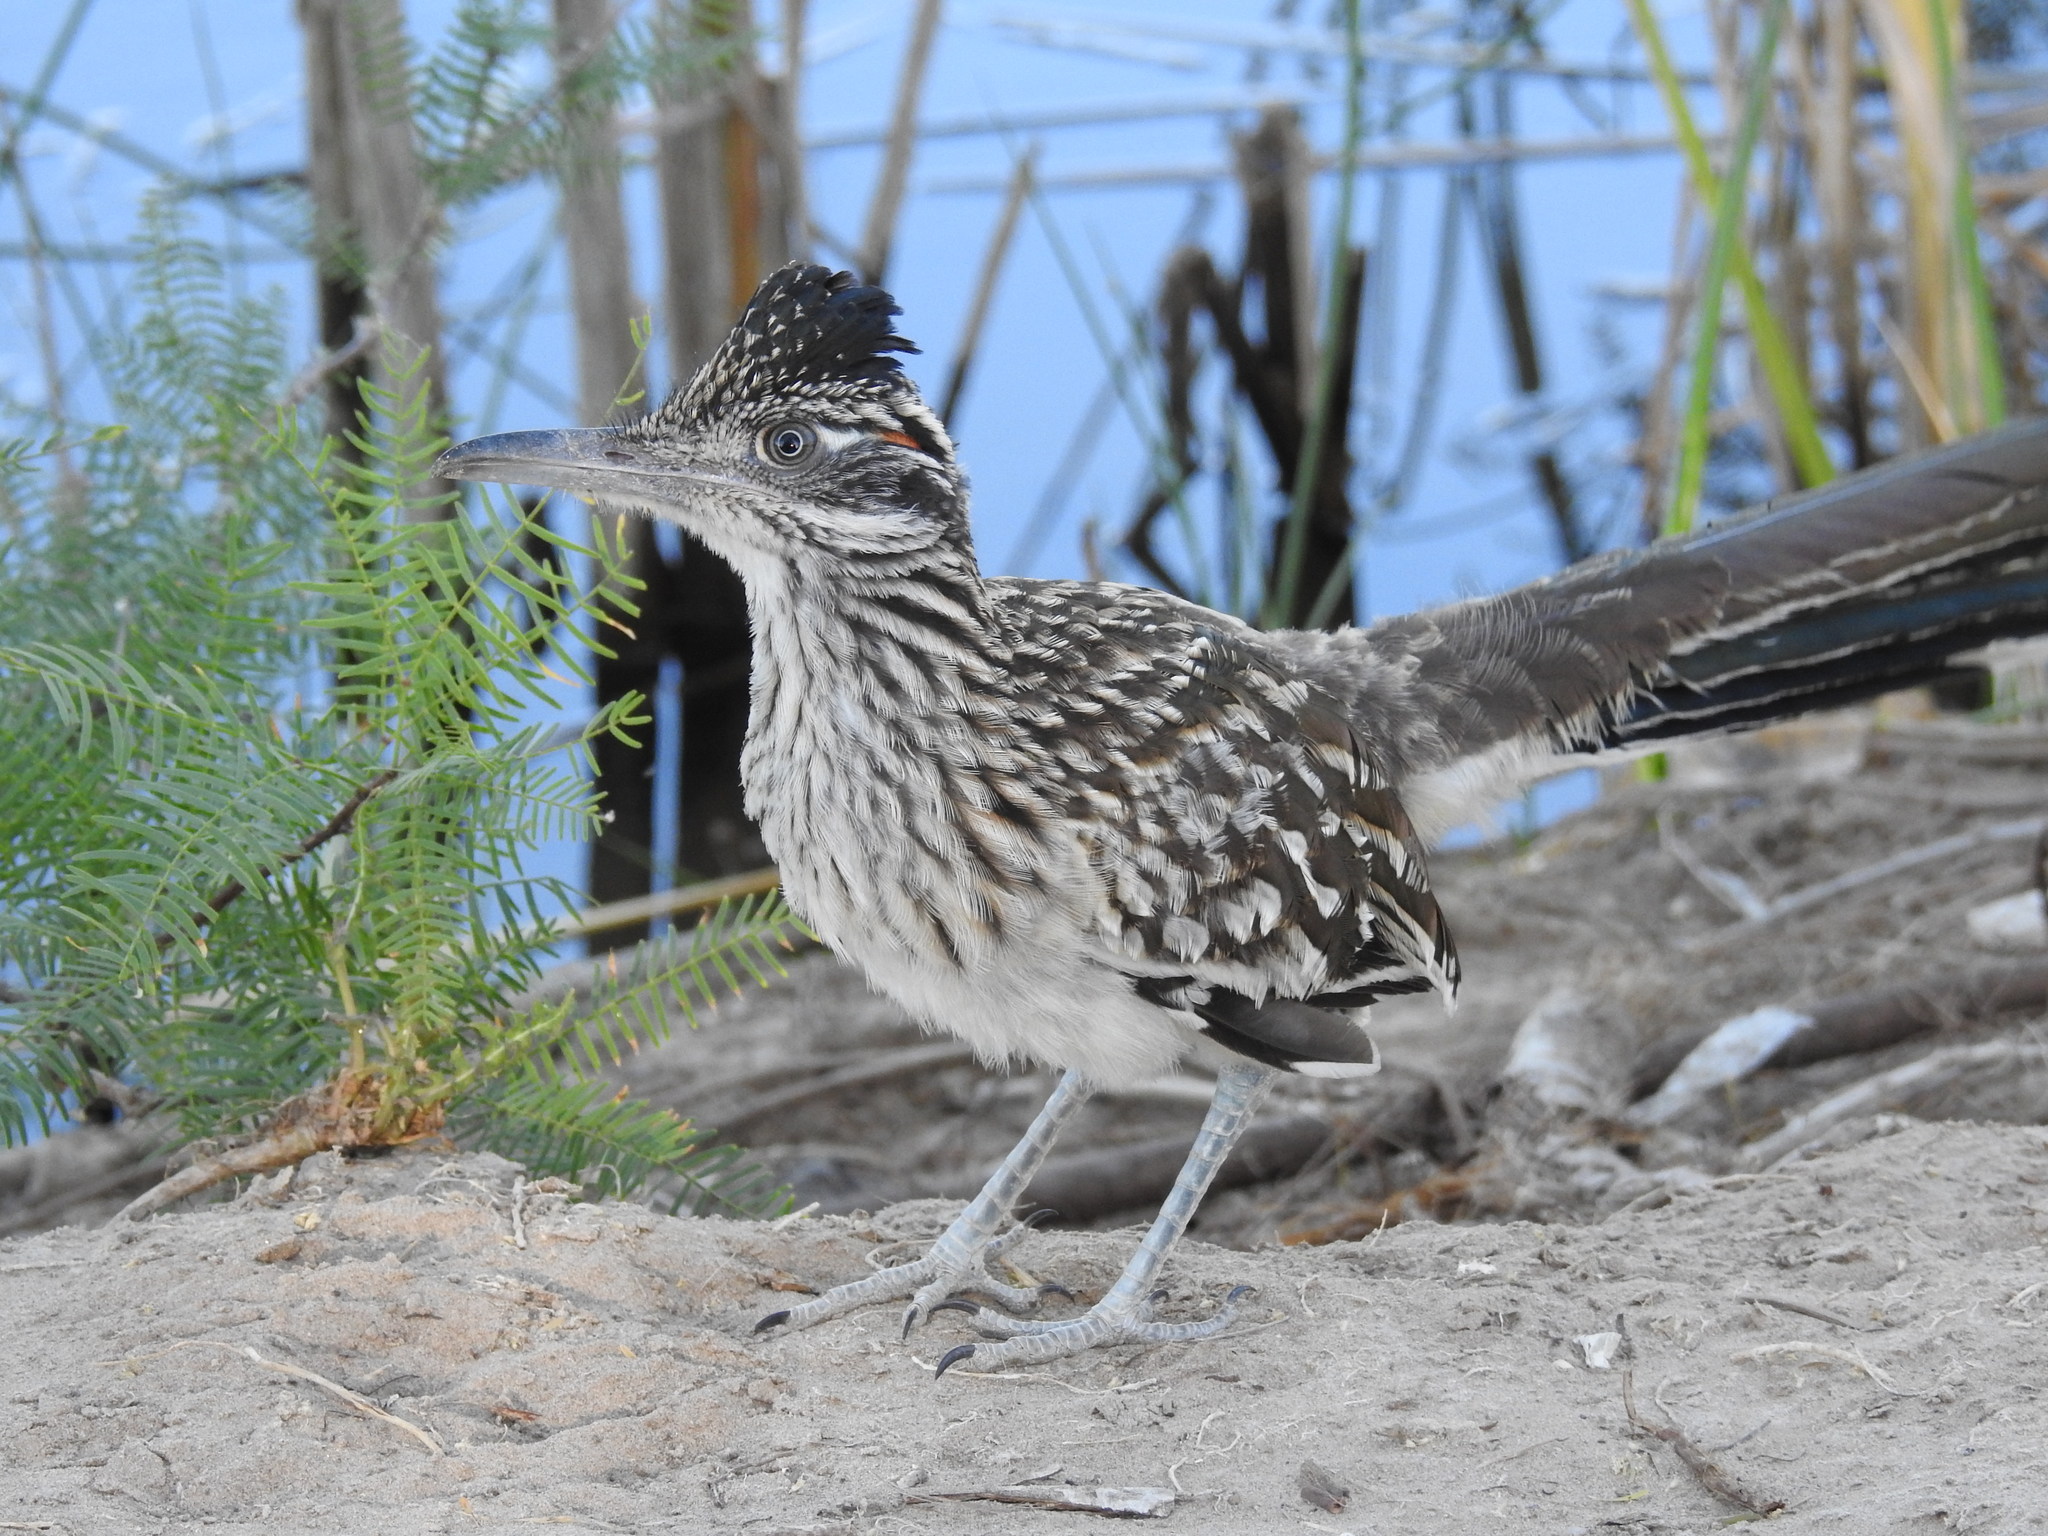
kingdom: Animalia
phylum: Chordata
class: Aves
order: Cuculiformes
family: Cuculidae
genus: Geococcyx
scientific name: Geococcyx californianus
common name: Greater roadrunner
